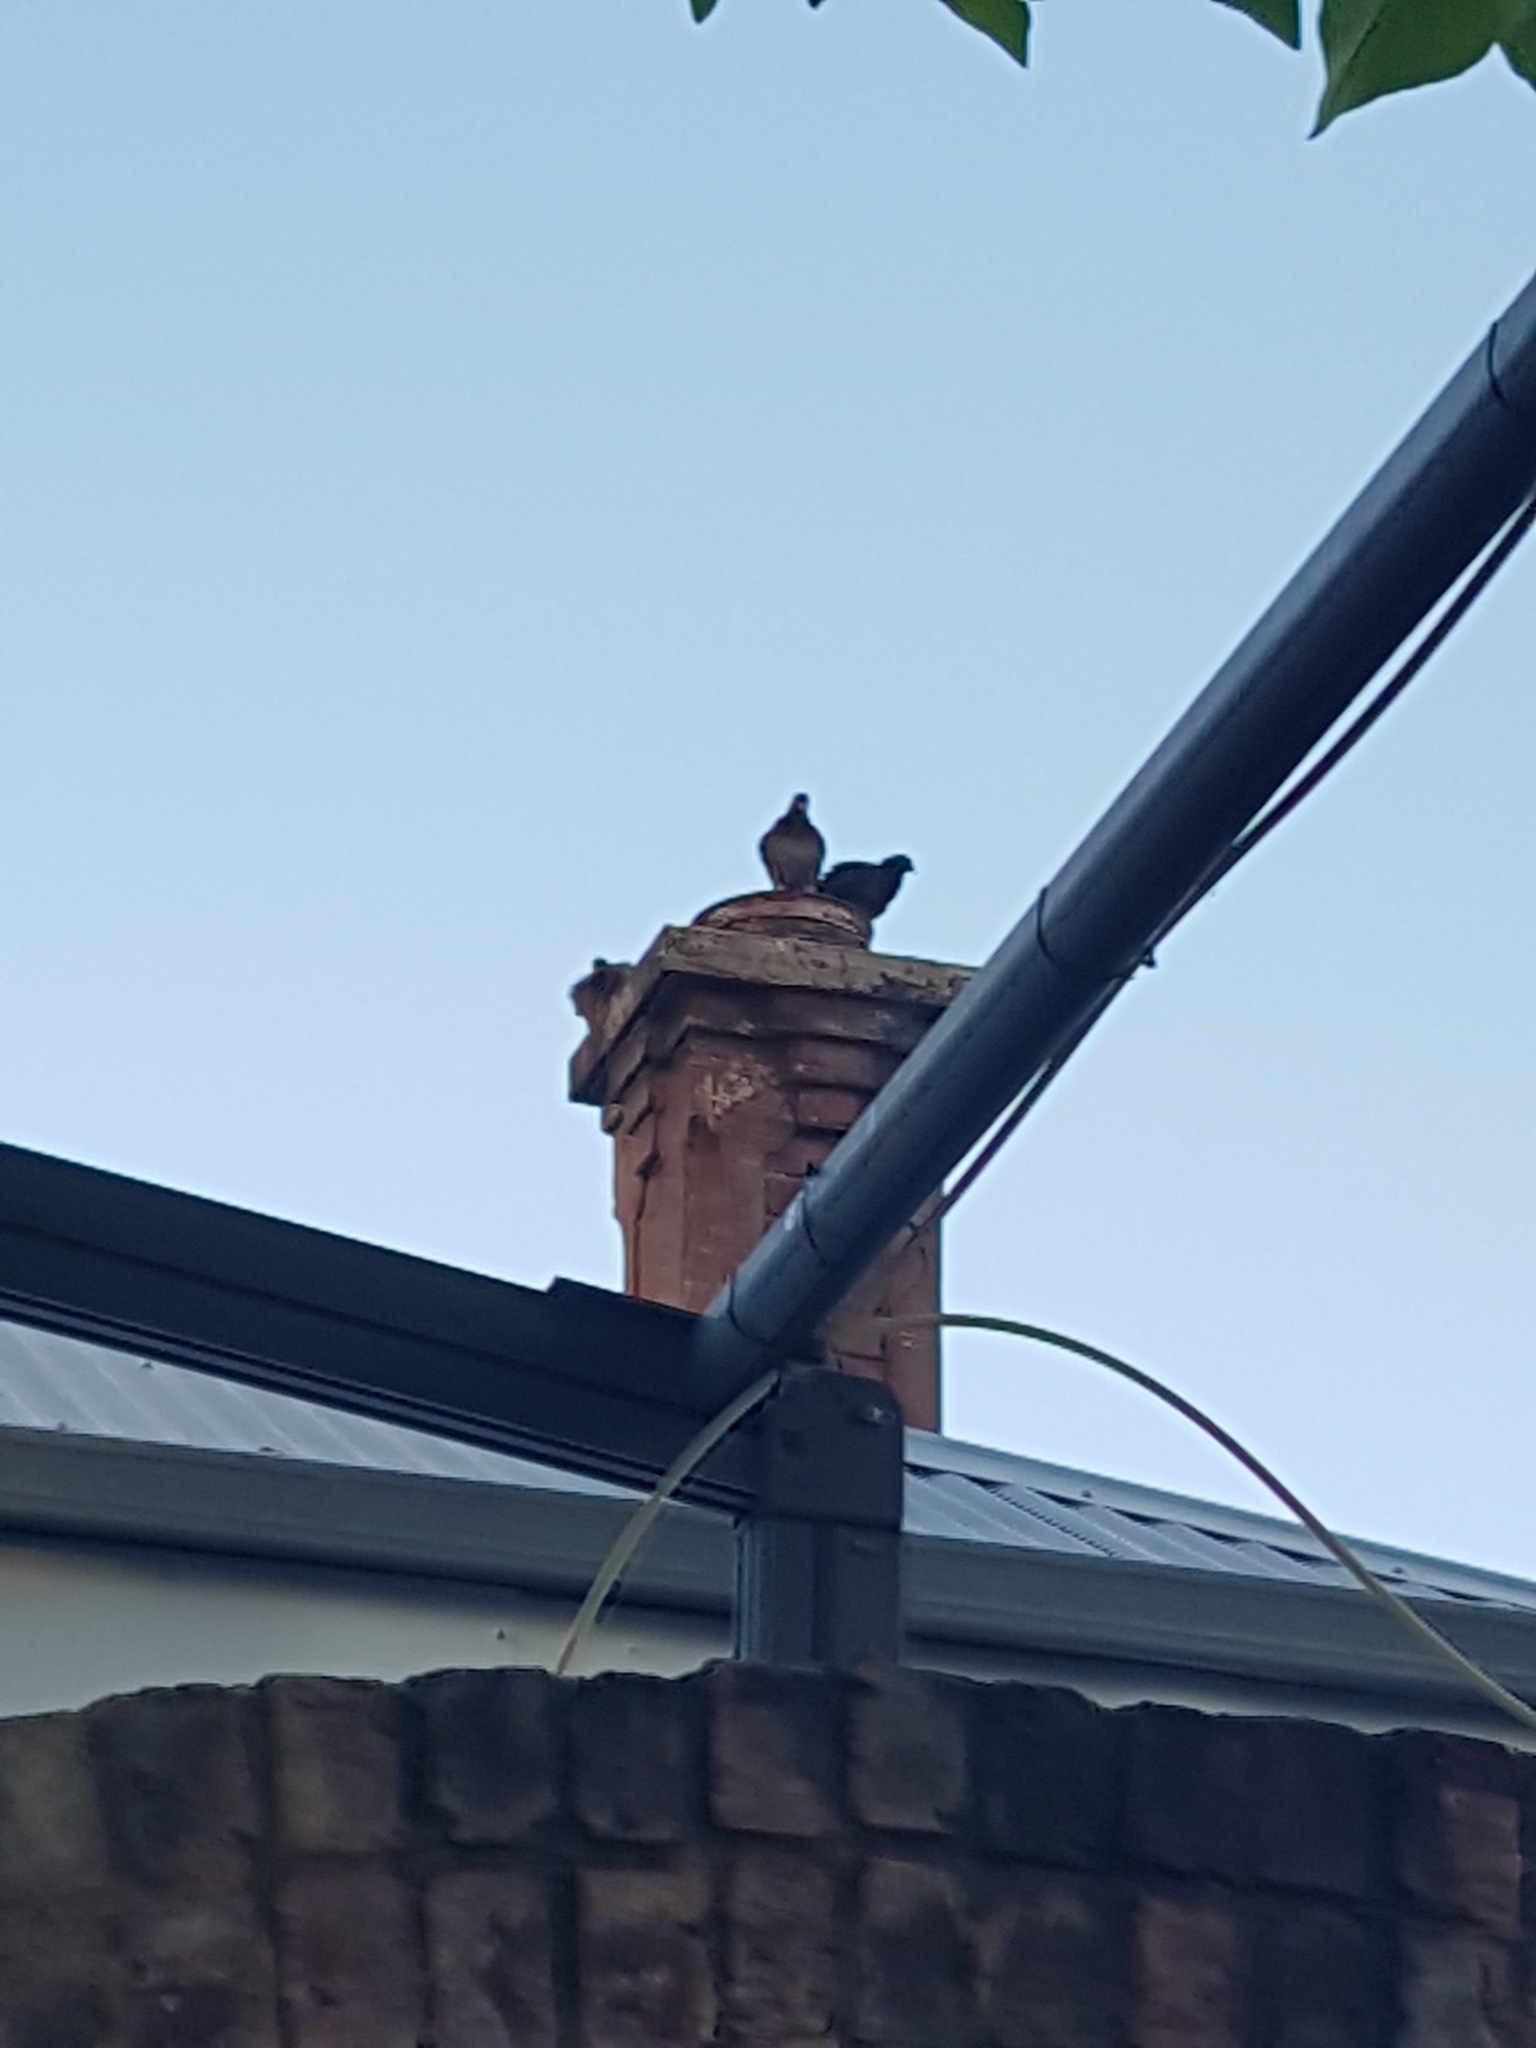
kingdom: Animalia
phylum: Chordata
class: Aves
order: Columbiformes
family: Columbidae
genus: Columba
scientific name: Columba livia
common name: Rock pigeon
